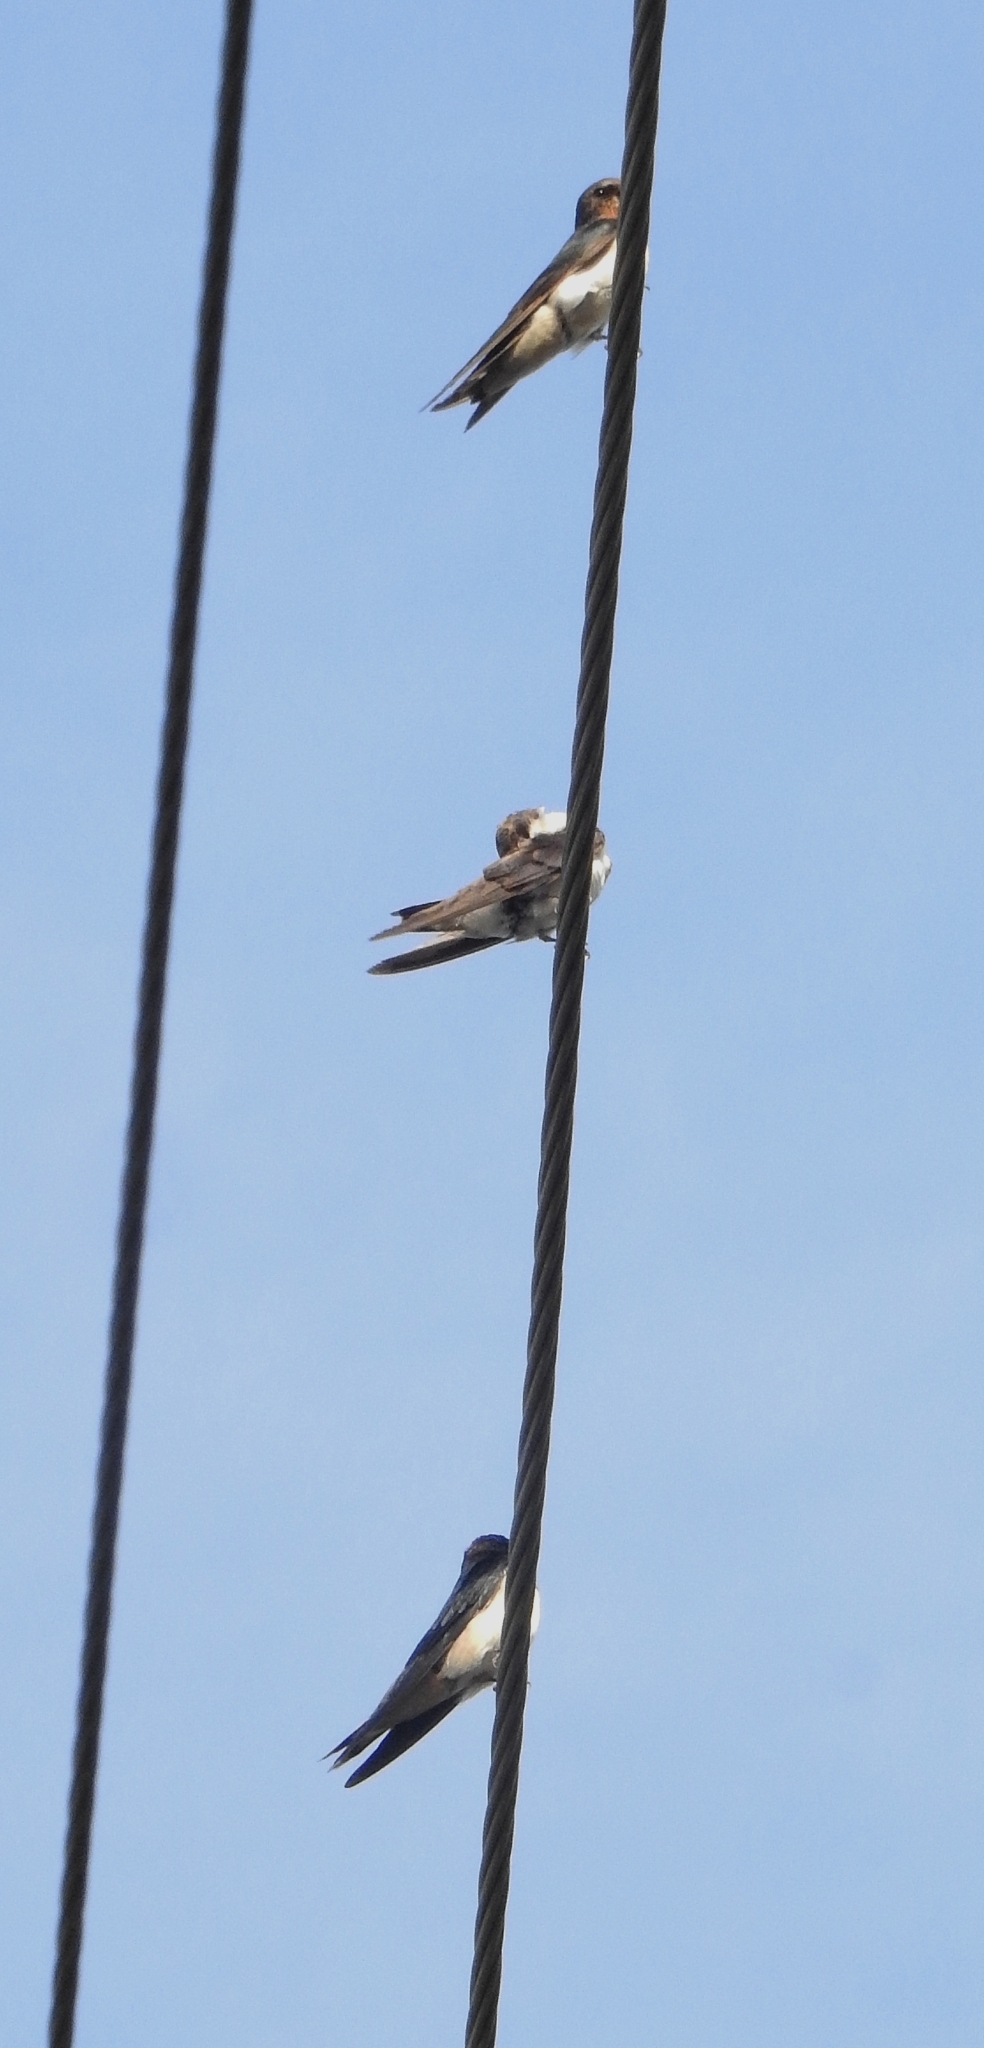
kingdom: Animalia
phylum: Chordata
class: Aves
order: Passeriformes
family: Hirundinidae
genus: Hirundo
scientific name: Hirundo smithii
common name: Wire-tailed swallow
